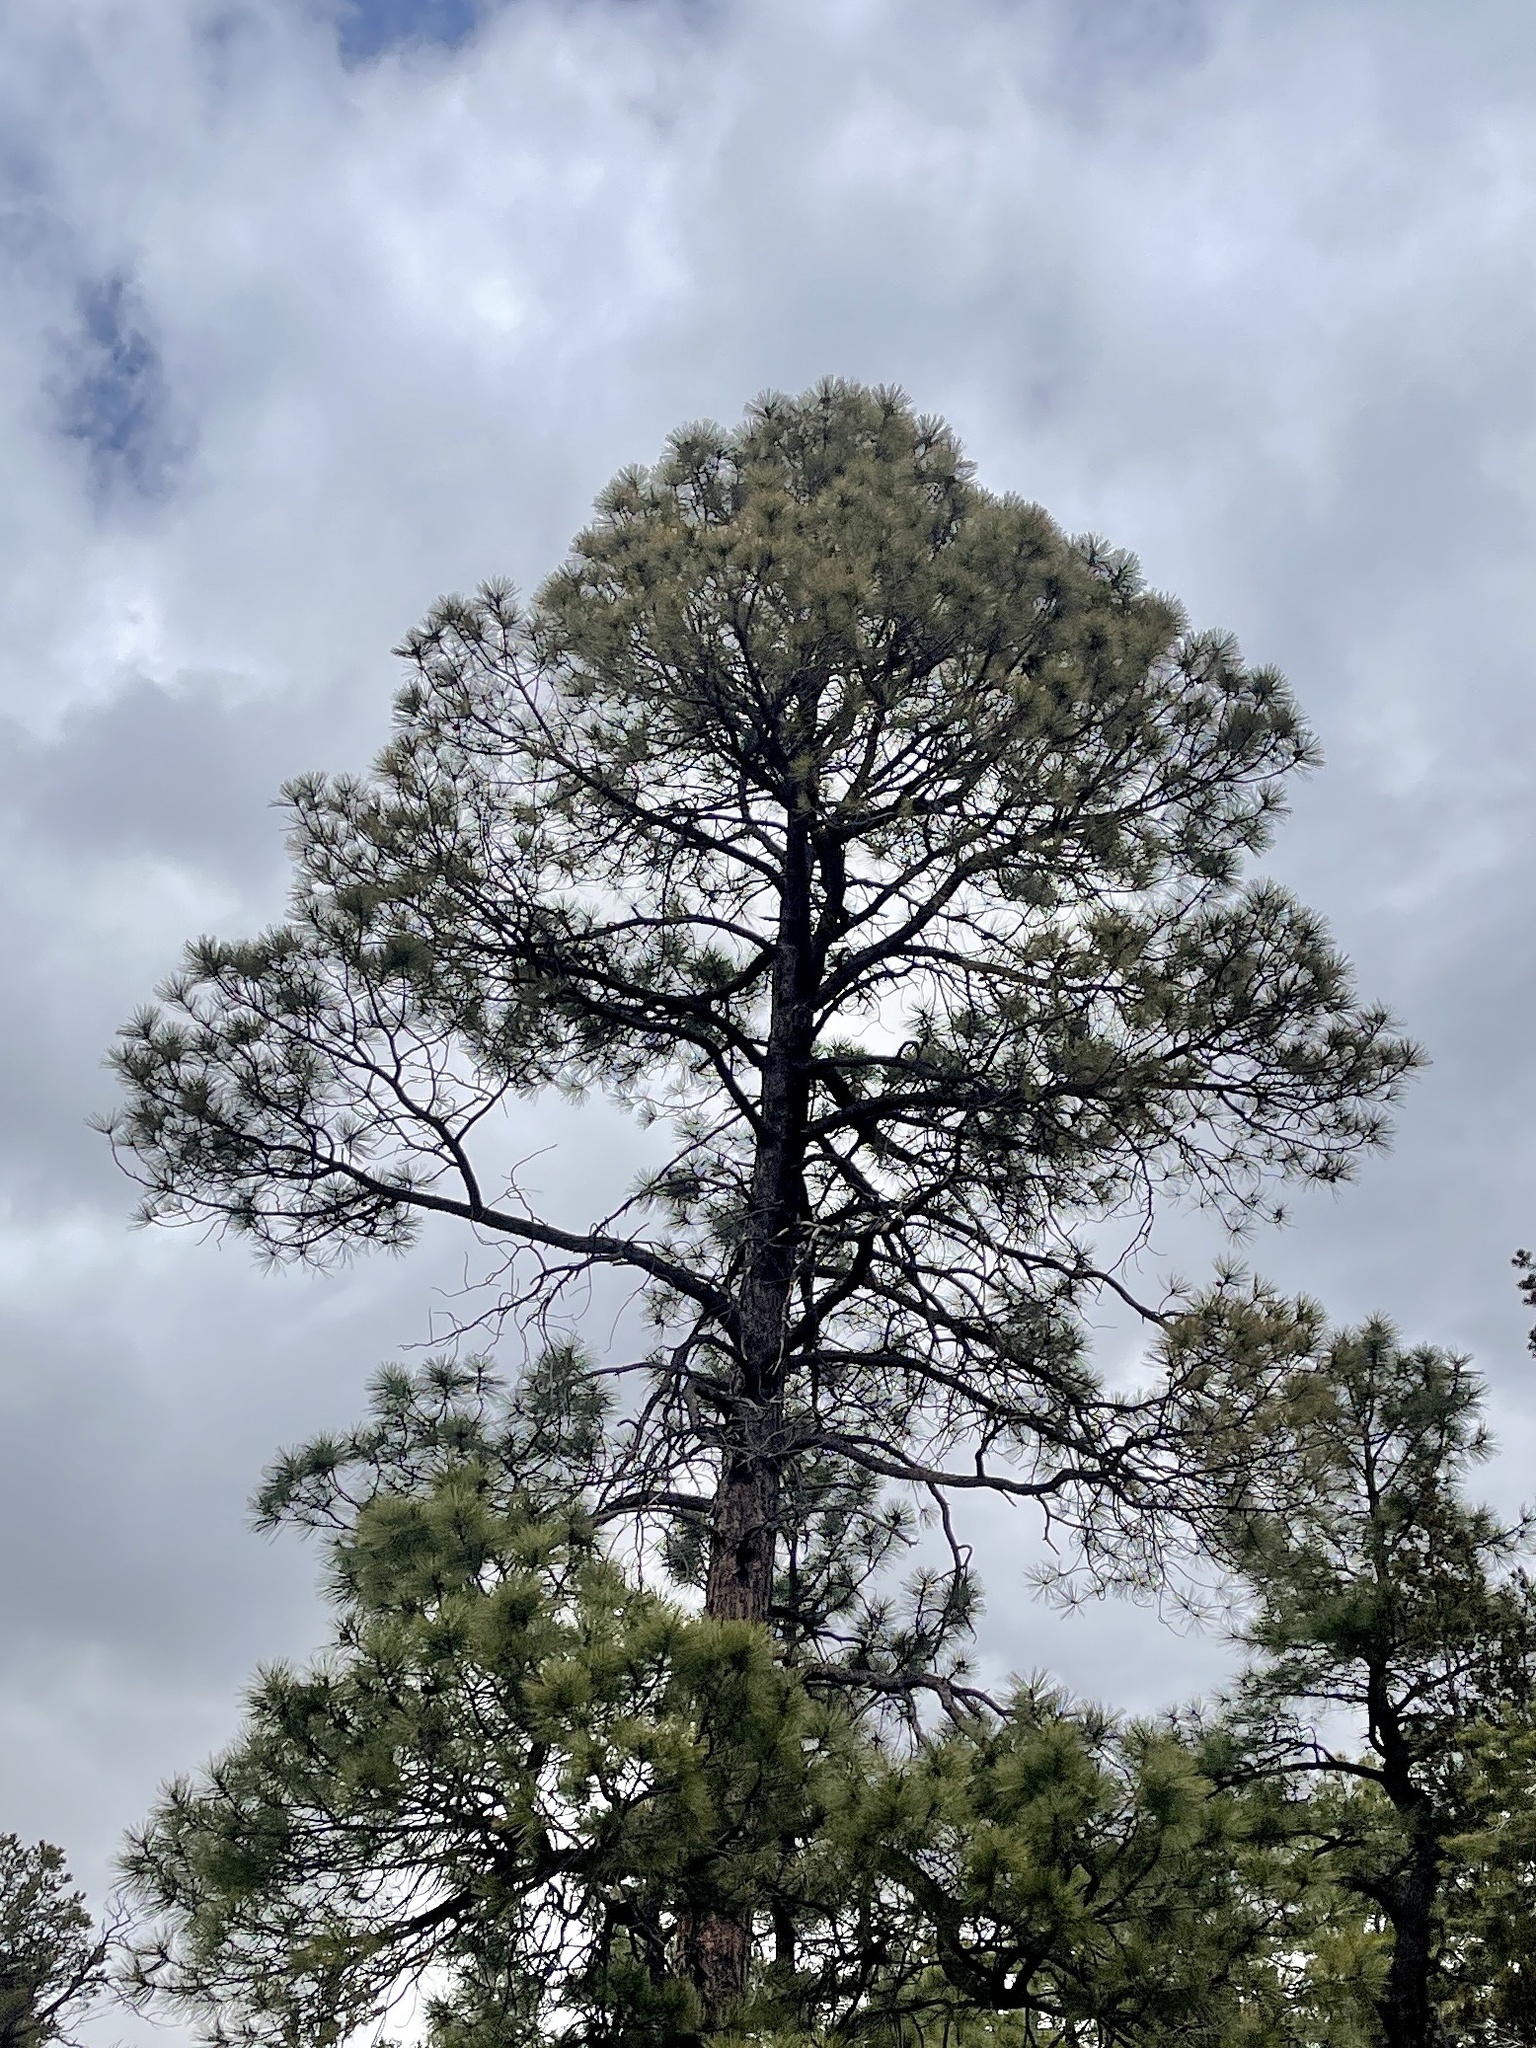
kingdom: Plantae
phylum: Tracheophyta
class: Pinopsida
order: Pinales
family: Pinaceae
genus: Pinus
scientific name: Pinus ponderosa
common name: Western yellow-pine
